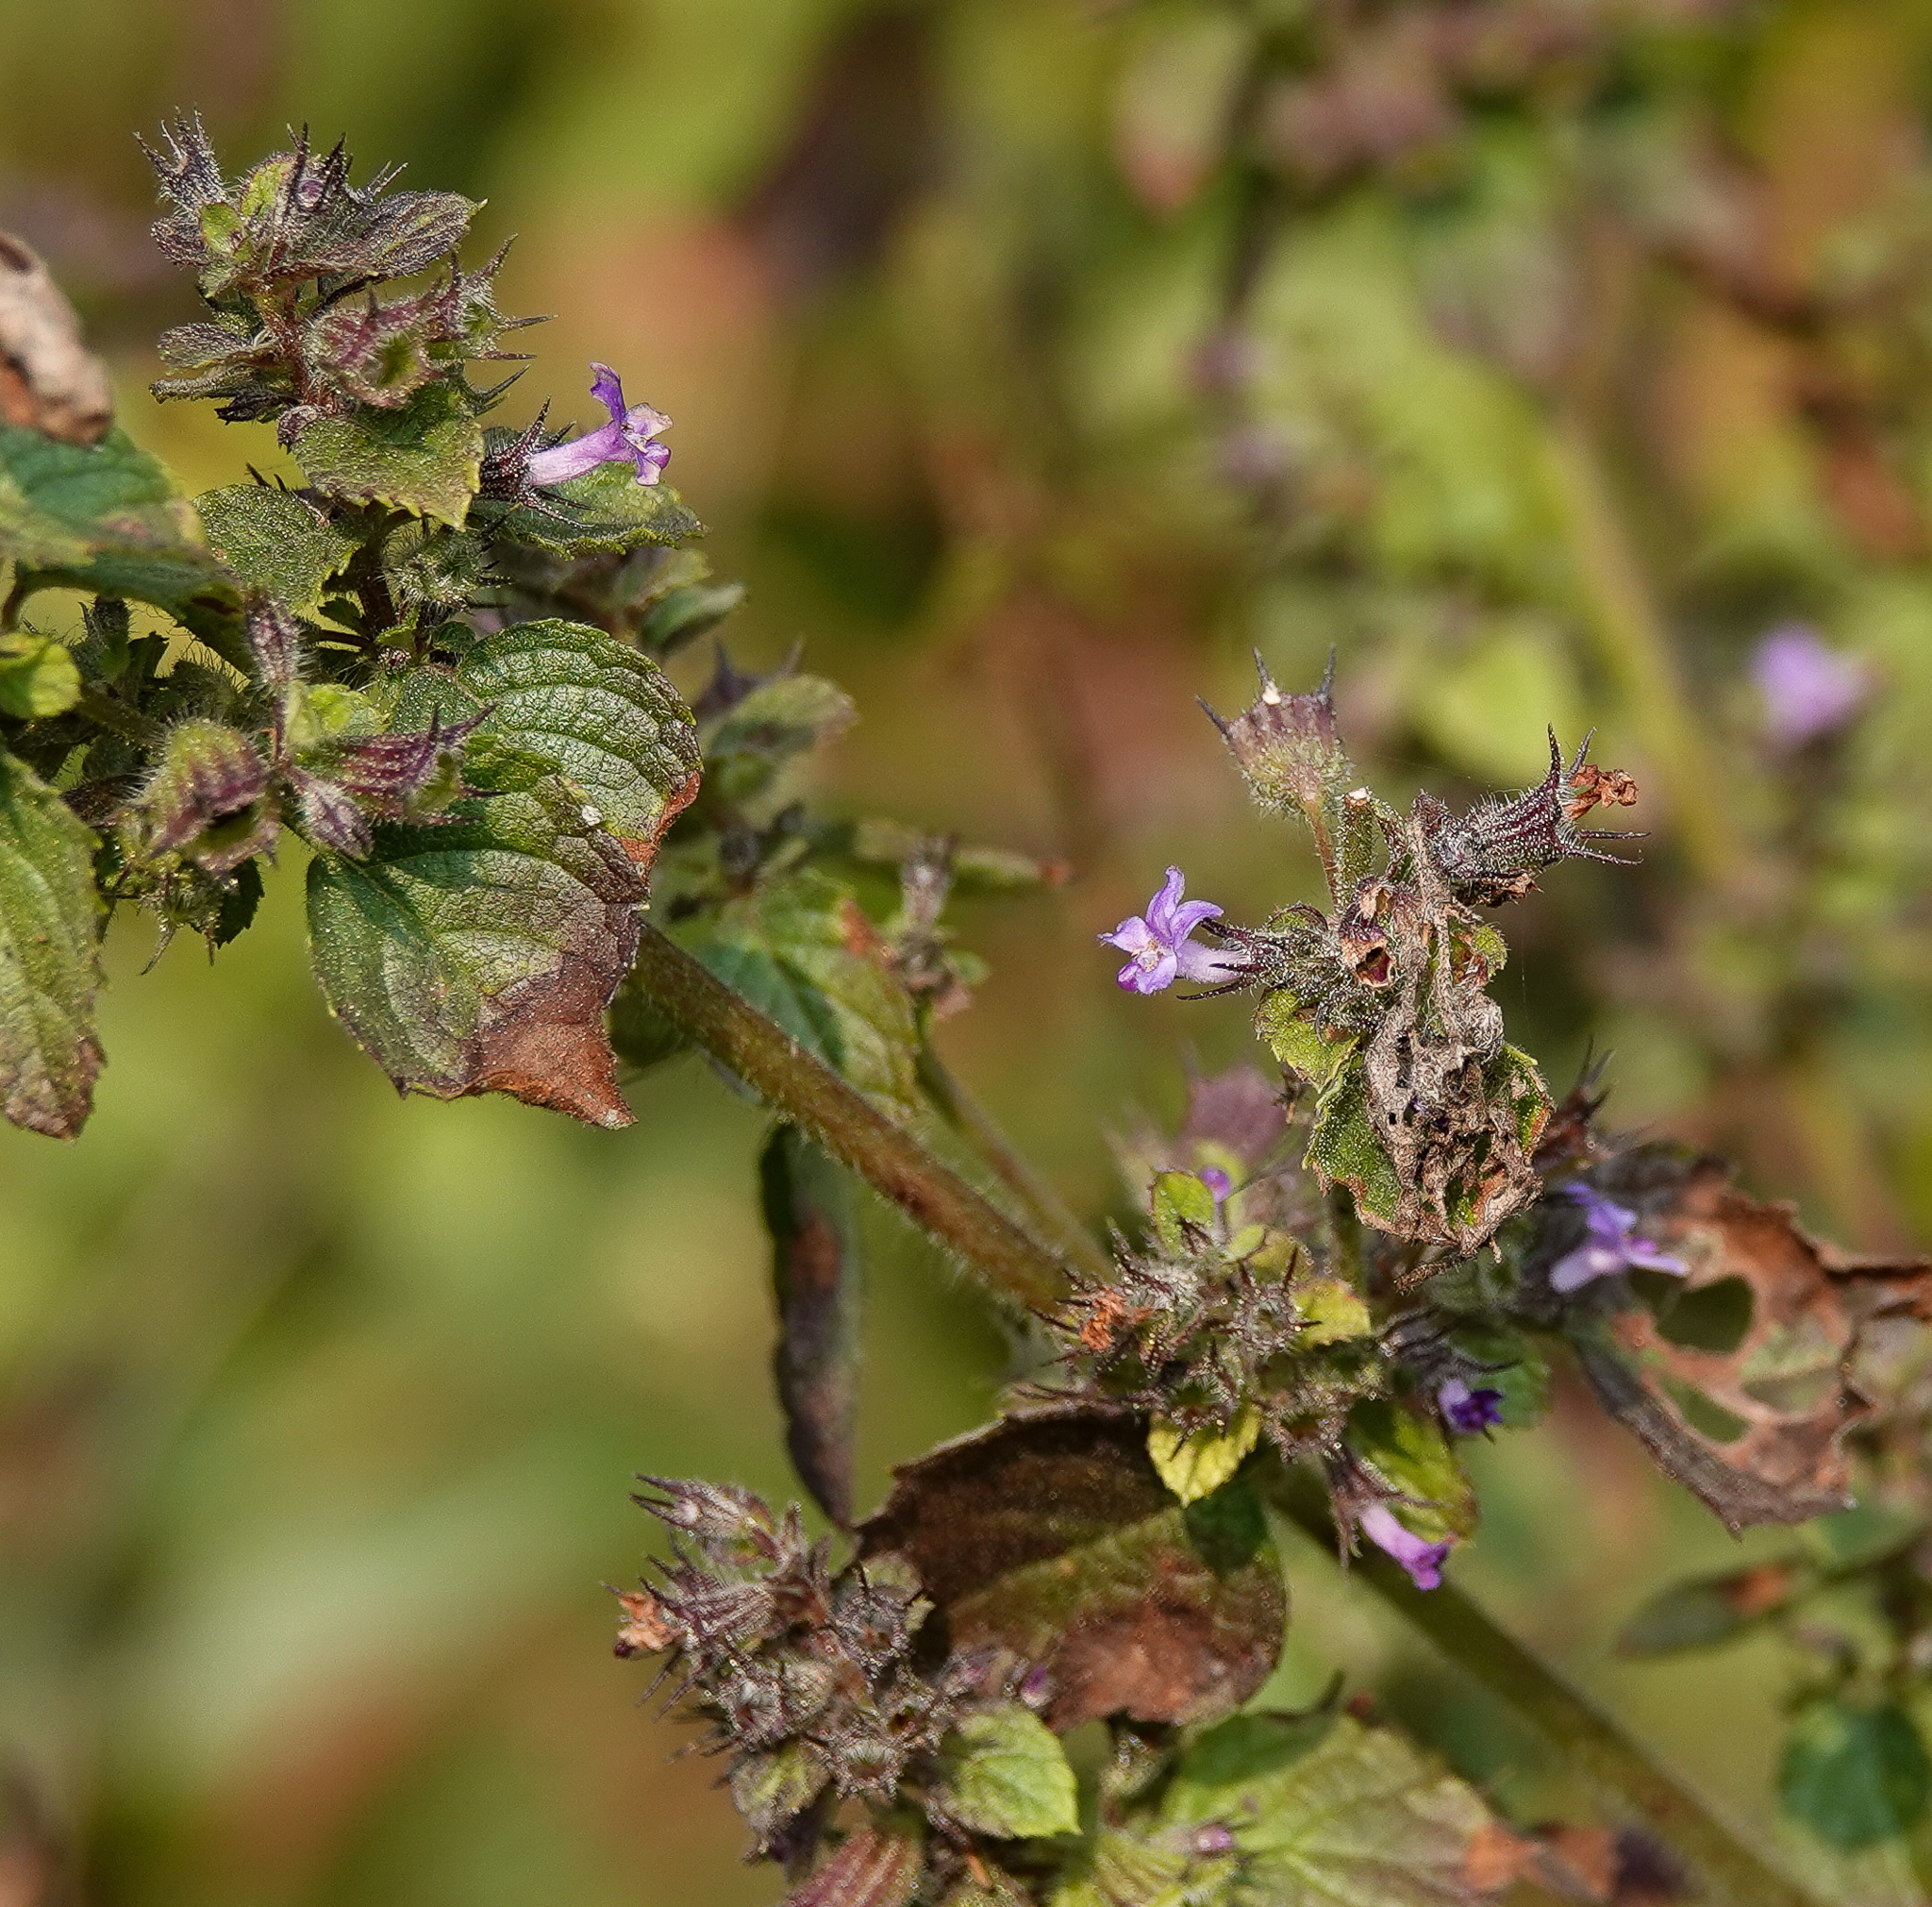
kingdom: Plantae
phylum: Tracheophyta
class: Magnoliopsida
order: Lamiales
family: Lamiaceae
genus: Mesosphaerum
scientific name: Mesosphaerum suaveolens
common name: Pignut
